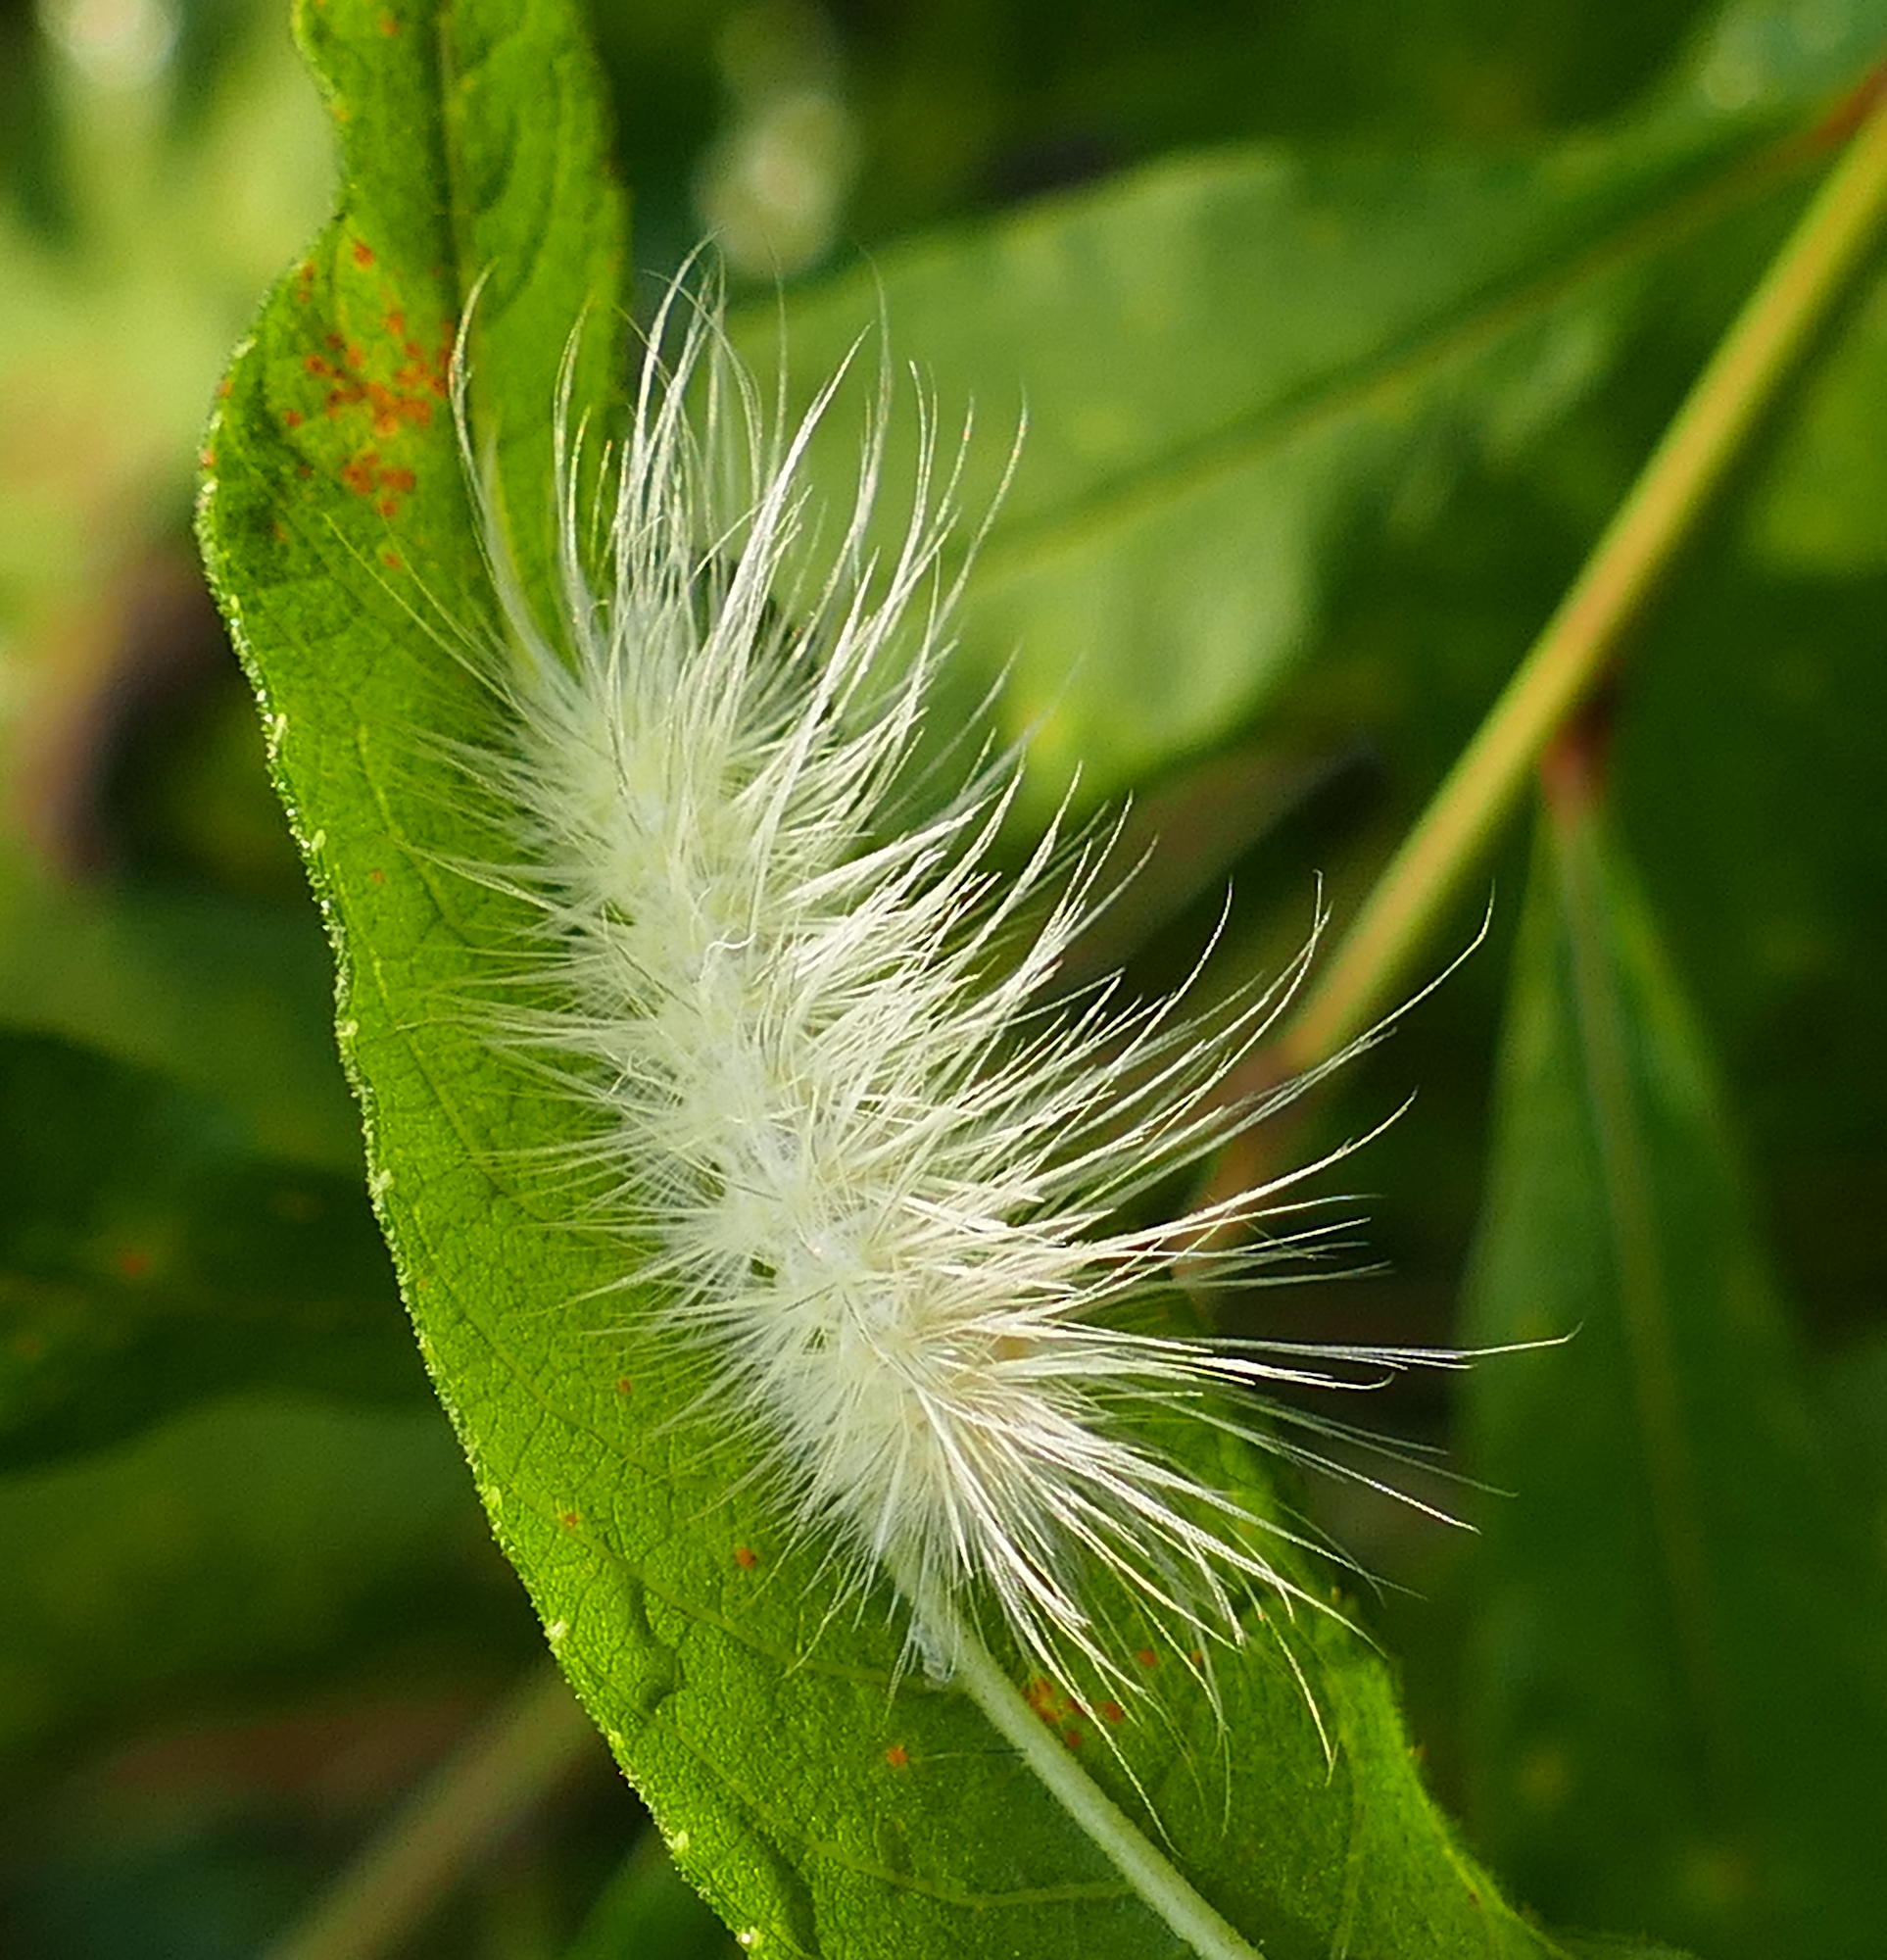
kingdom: Animalia
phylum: Arthropoda
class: Insecta
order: Lepidoptera
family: Erebidae
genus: Spilosoma
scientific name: Spilosoma virginica
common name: Virginia tiger moth
